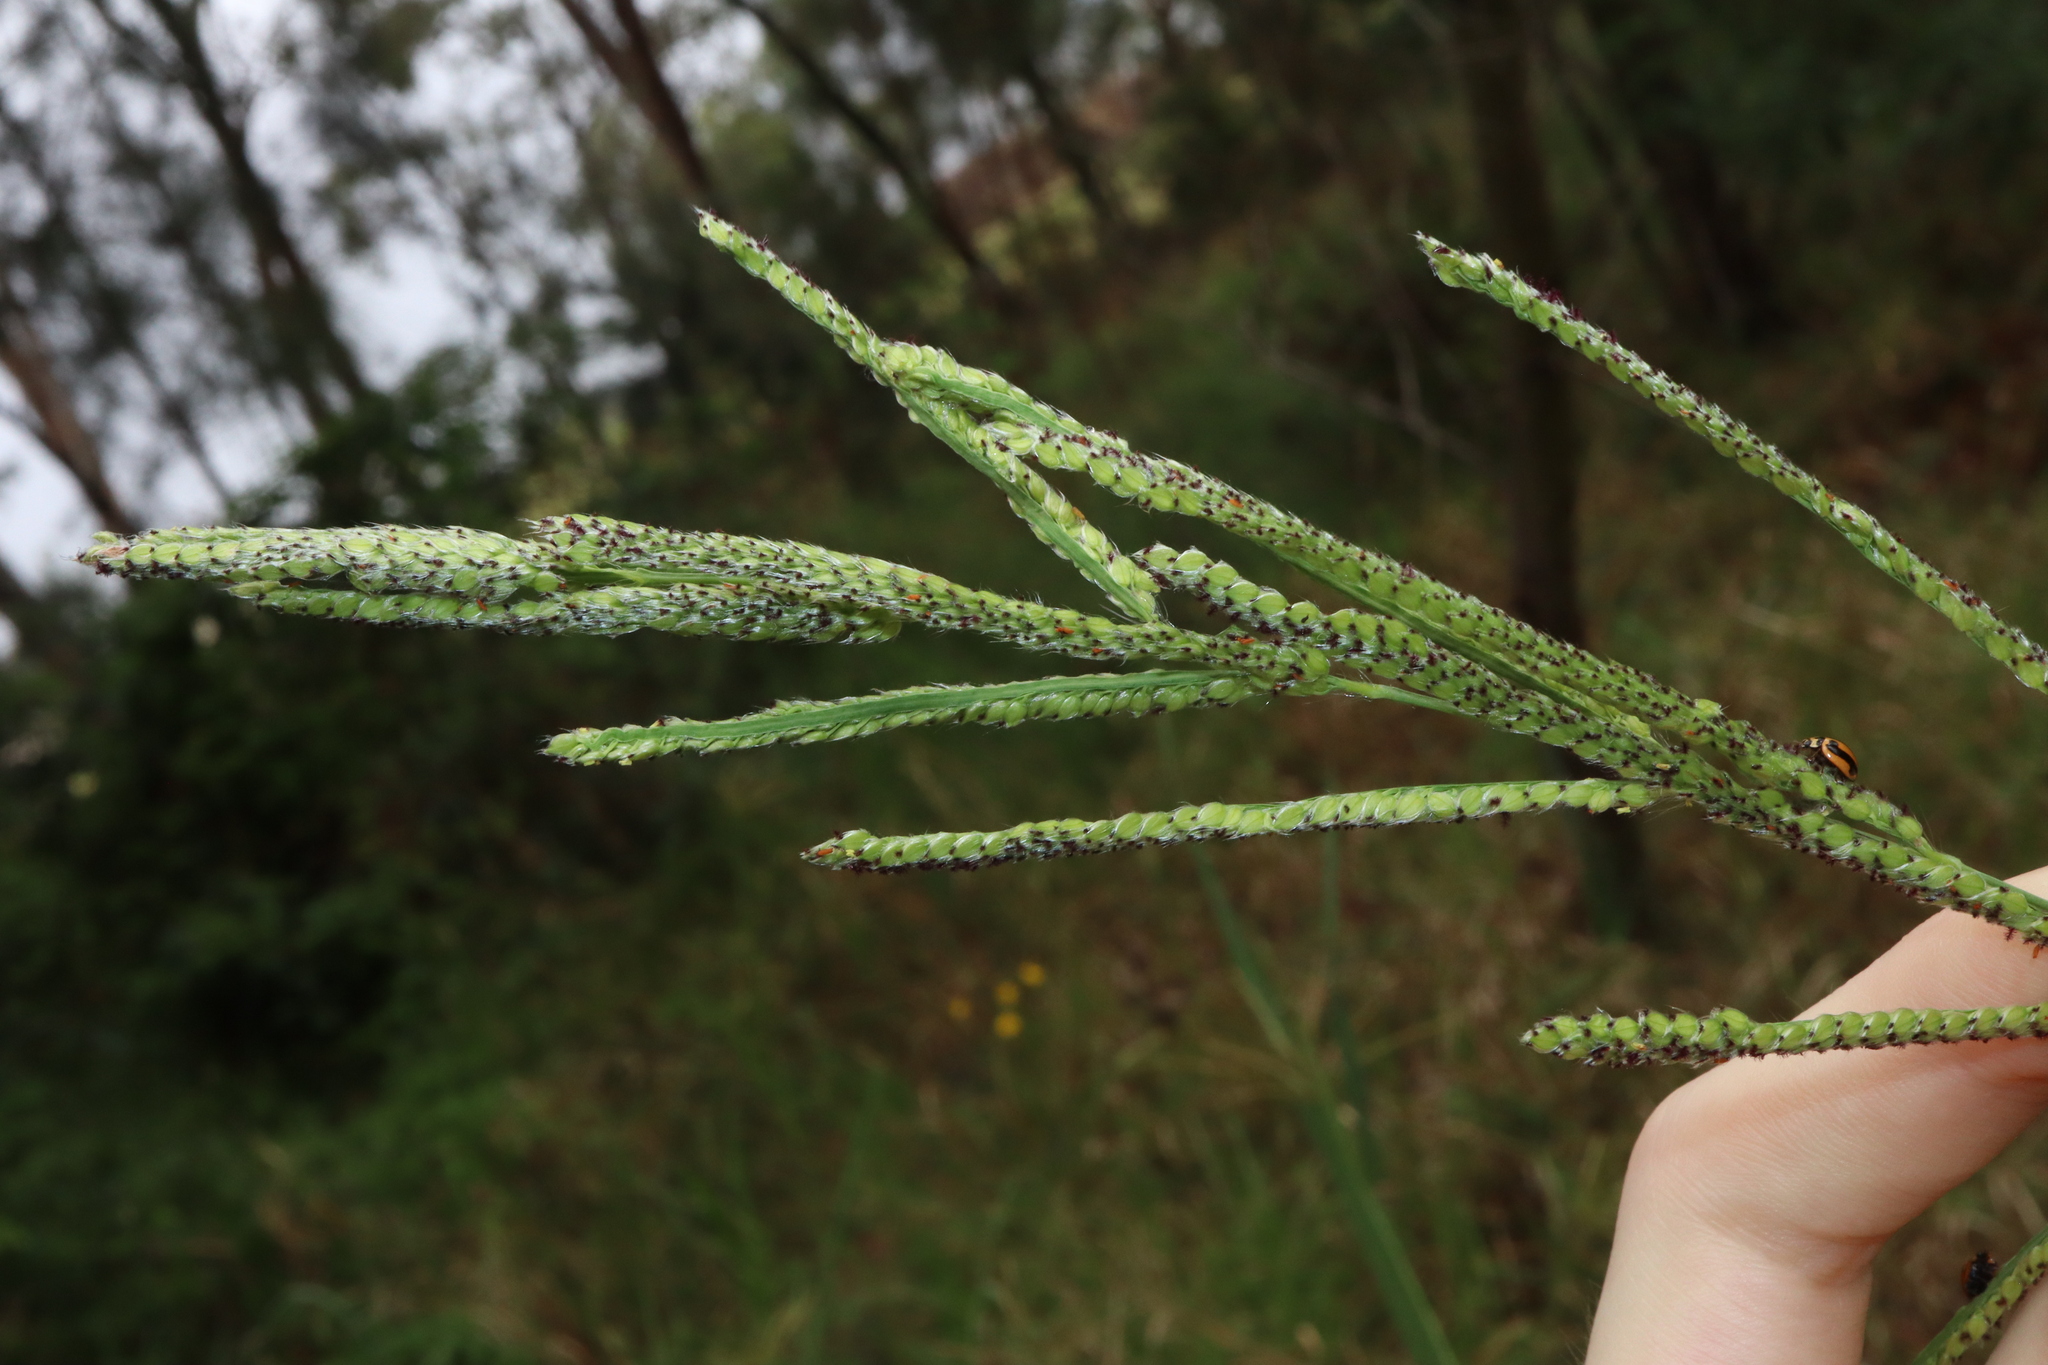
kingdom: Plantae
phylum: Tracheophyta
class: Liliopsida
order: Poales
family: Poaceae
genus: Paspalum
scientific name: Paspalum urvillei
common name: Vasey's grass
